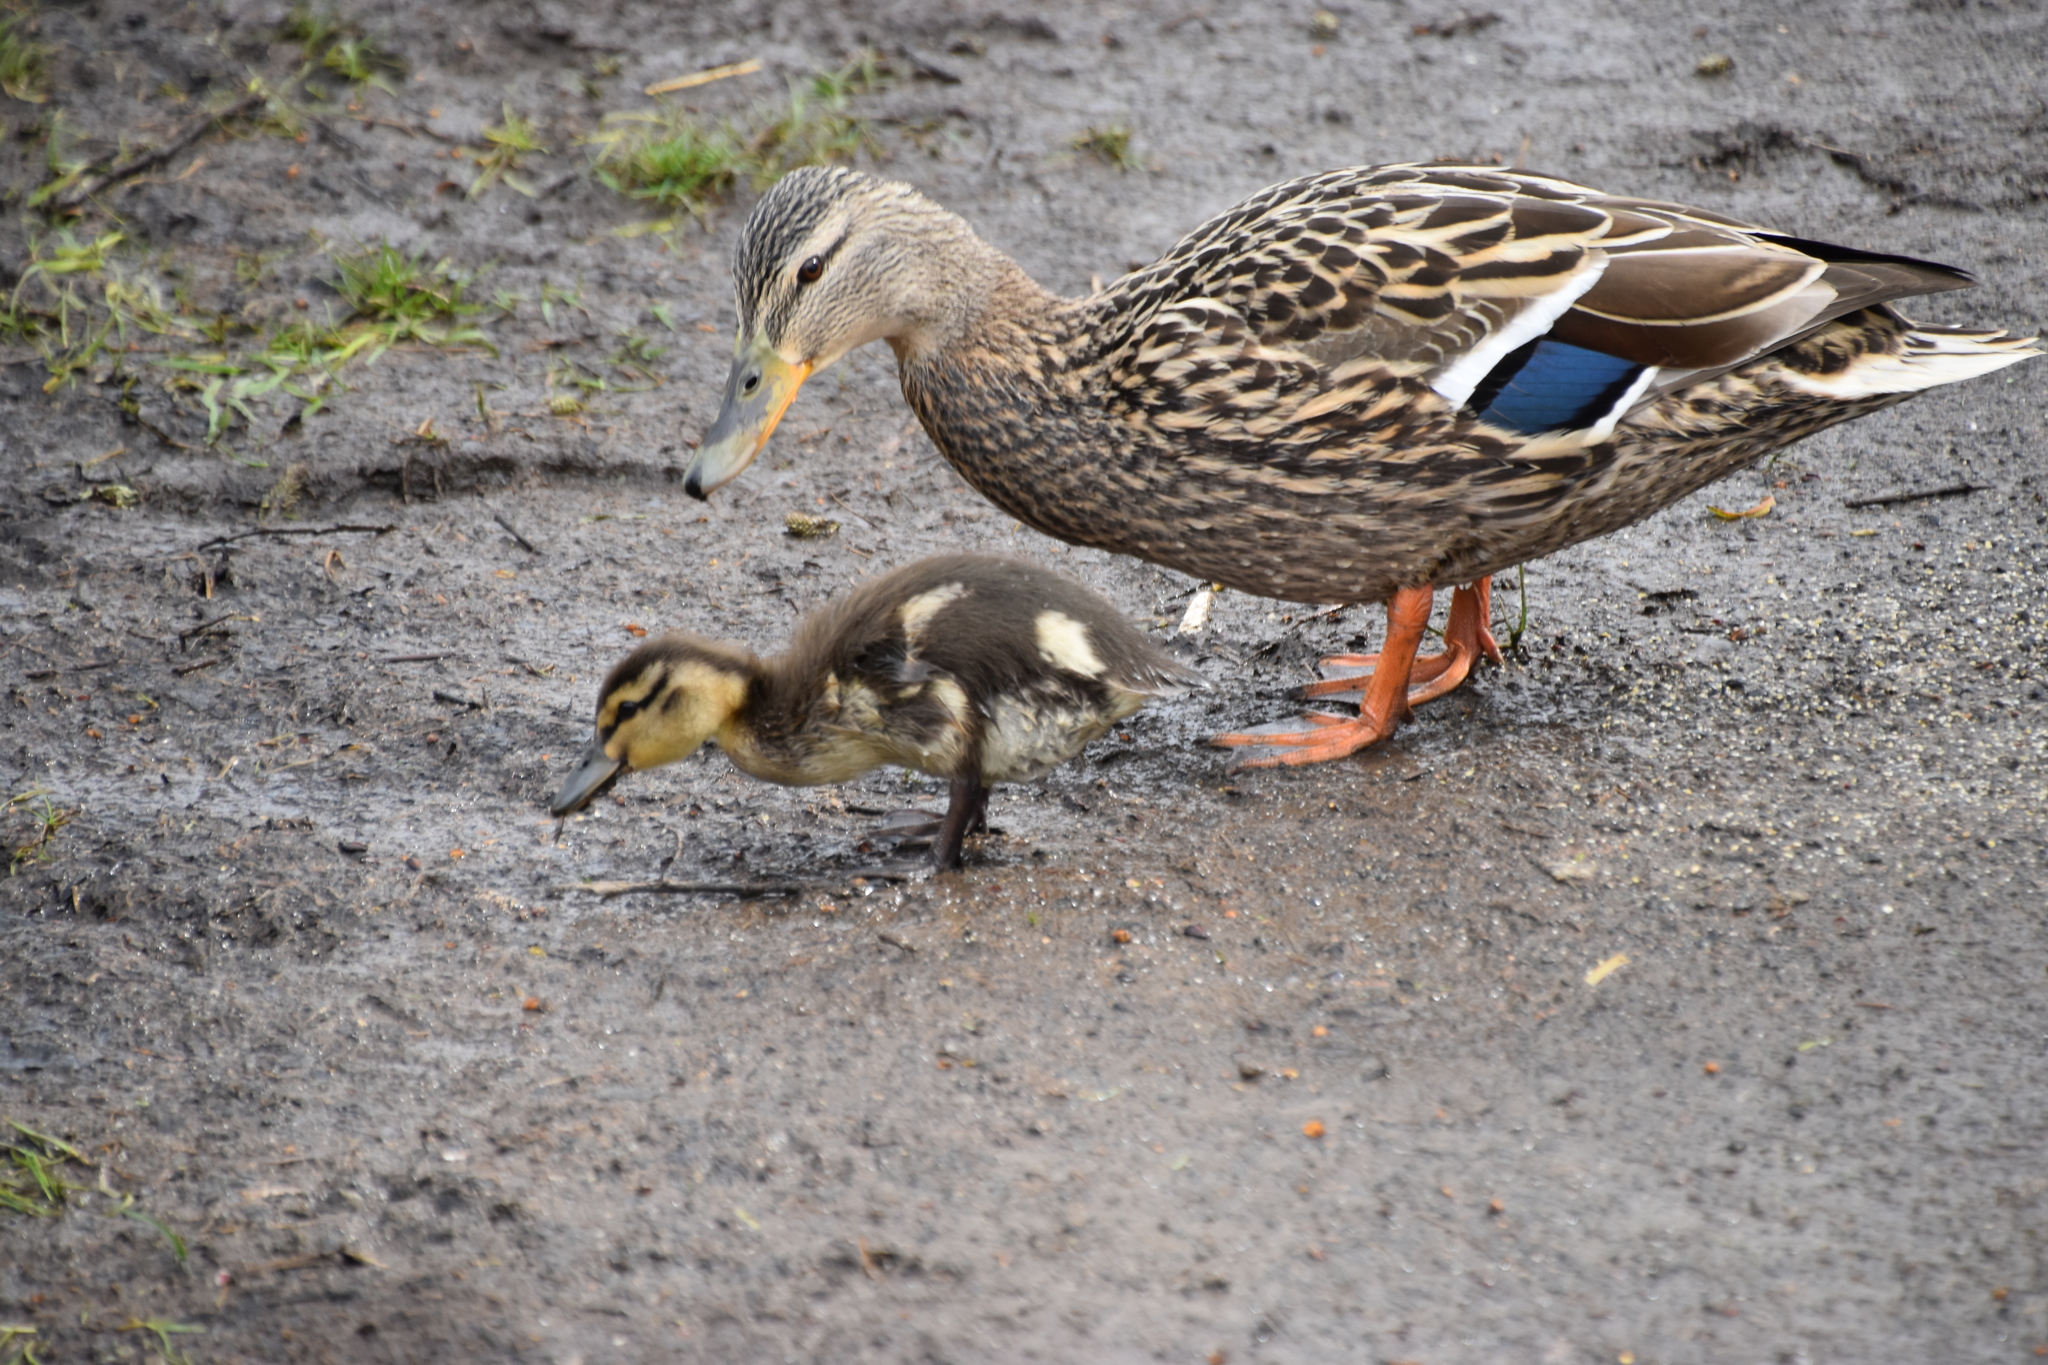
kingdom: Animalia
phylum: Chordata
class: Aves
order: Anseriformes
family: Anatidae
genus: Anas
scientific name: Anas platyrhynchos
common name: Mallard
